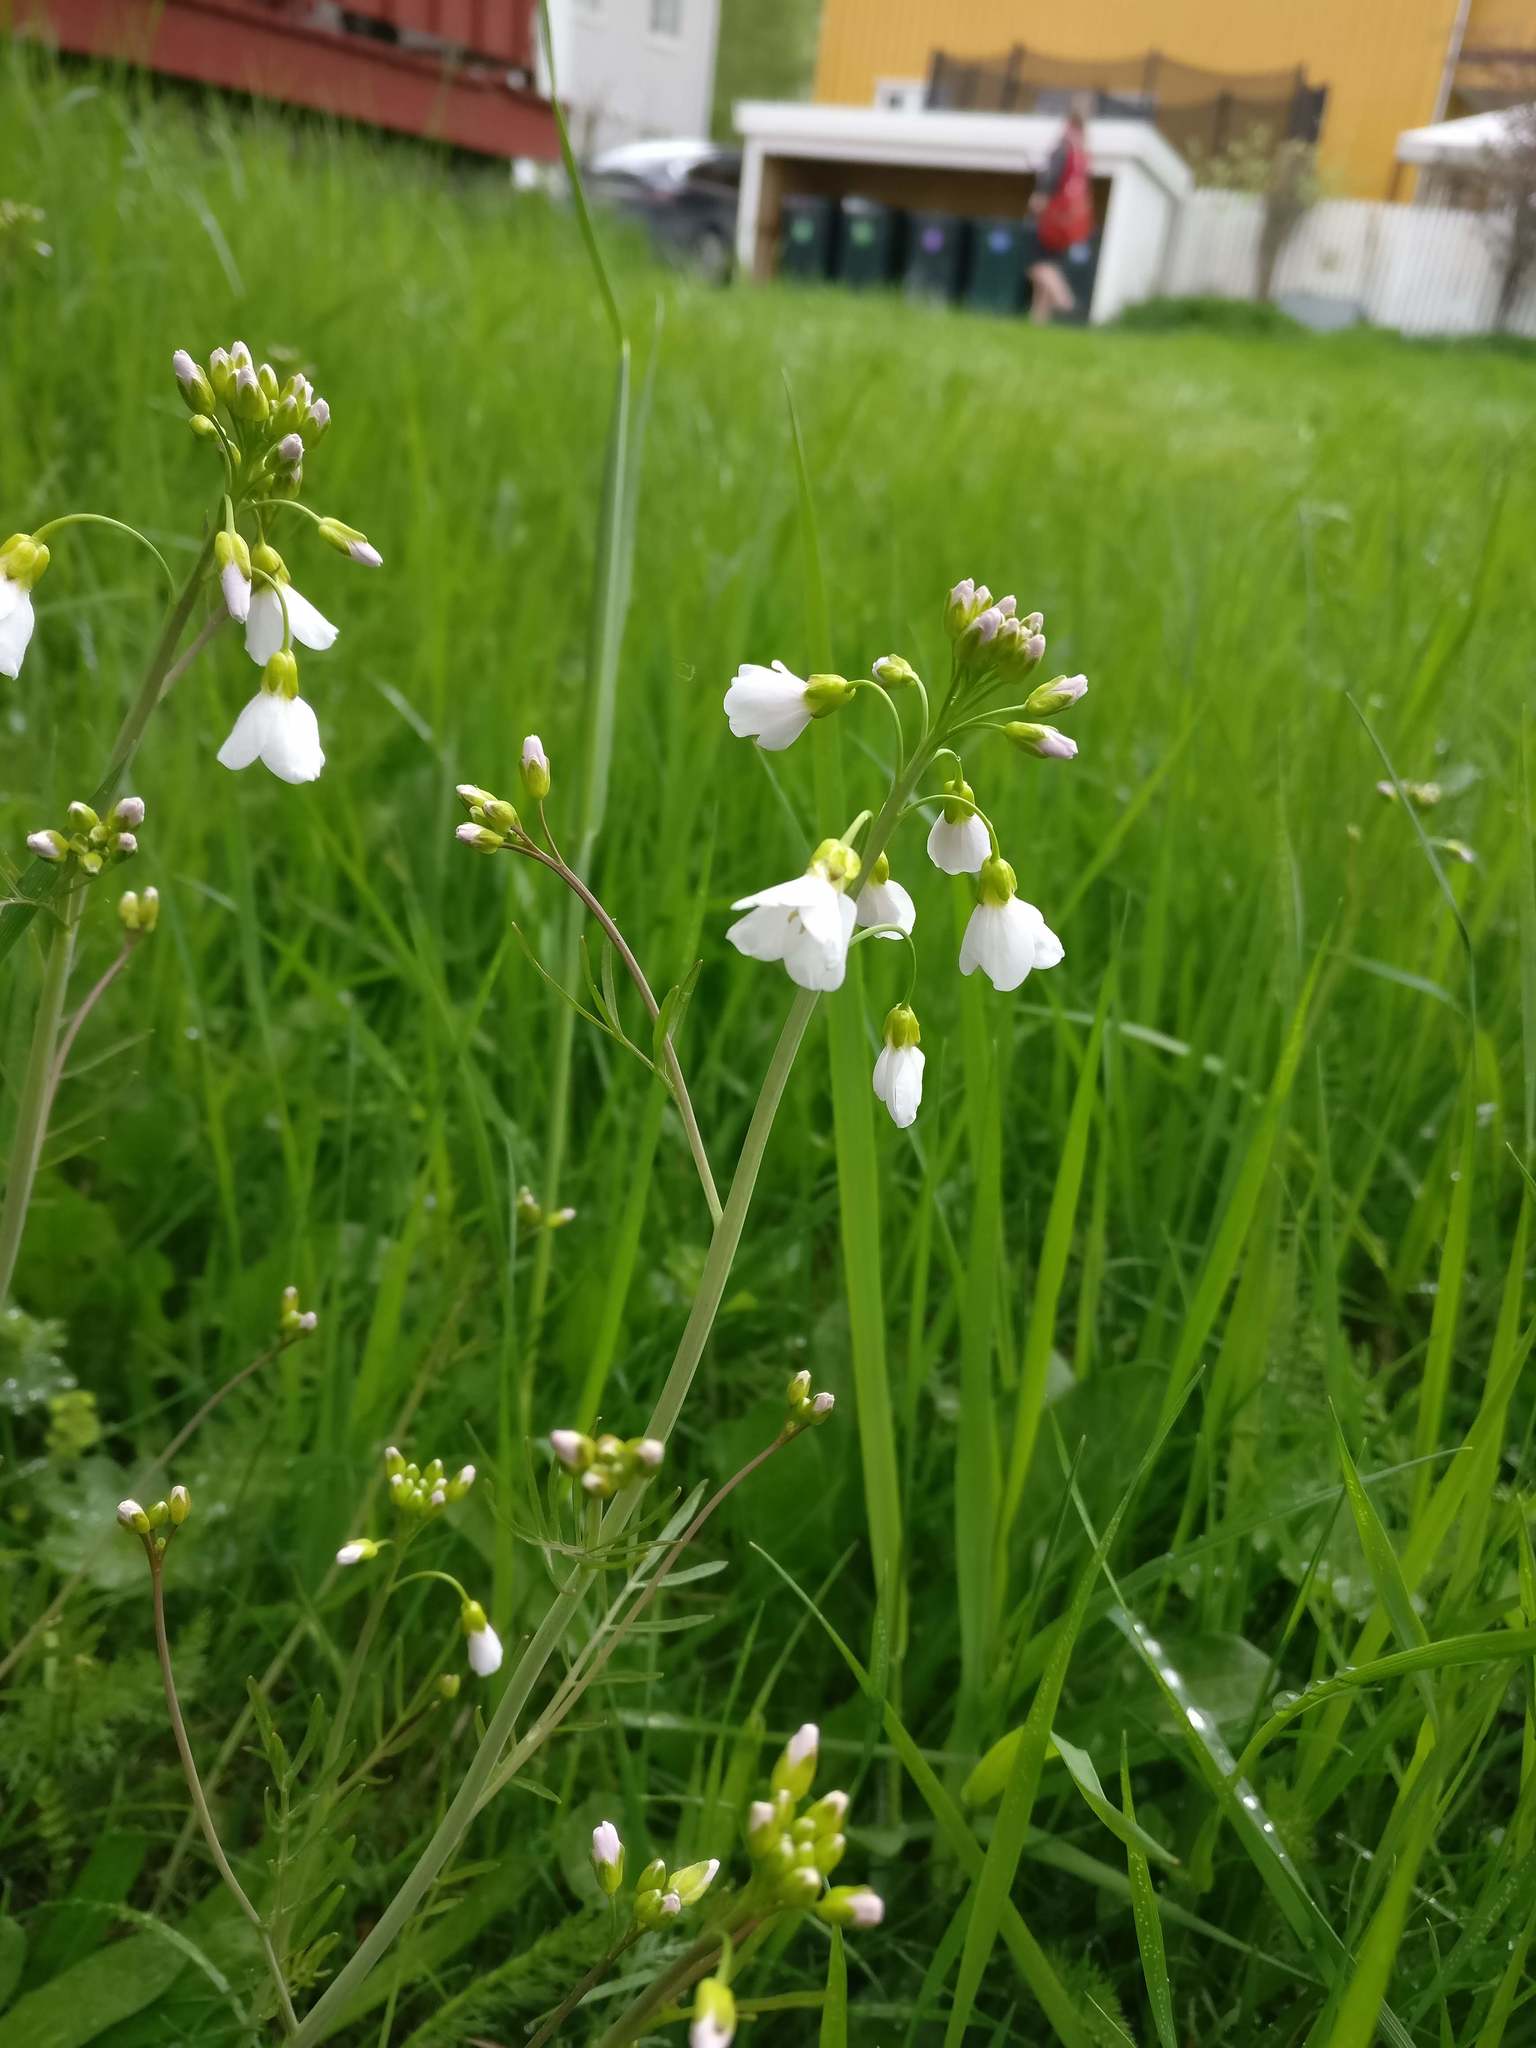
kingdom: Plantae
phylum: Tracheophyta
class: Magnoliopsida
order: Brassicales
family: Brassicaceae
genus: Cardamine
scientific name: Cardamine pratensis
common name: Cuckoo flower
